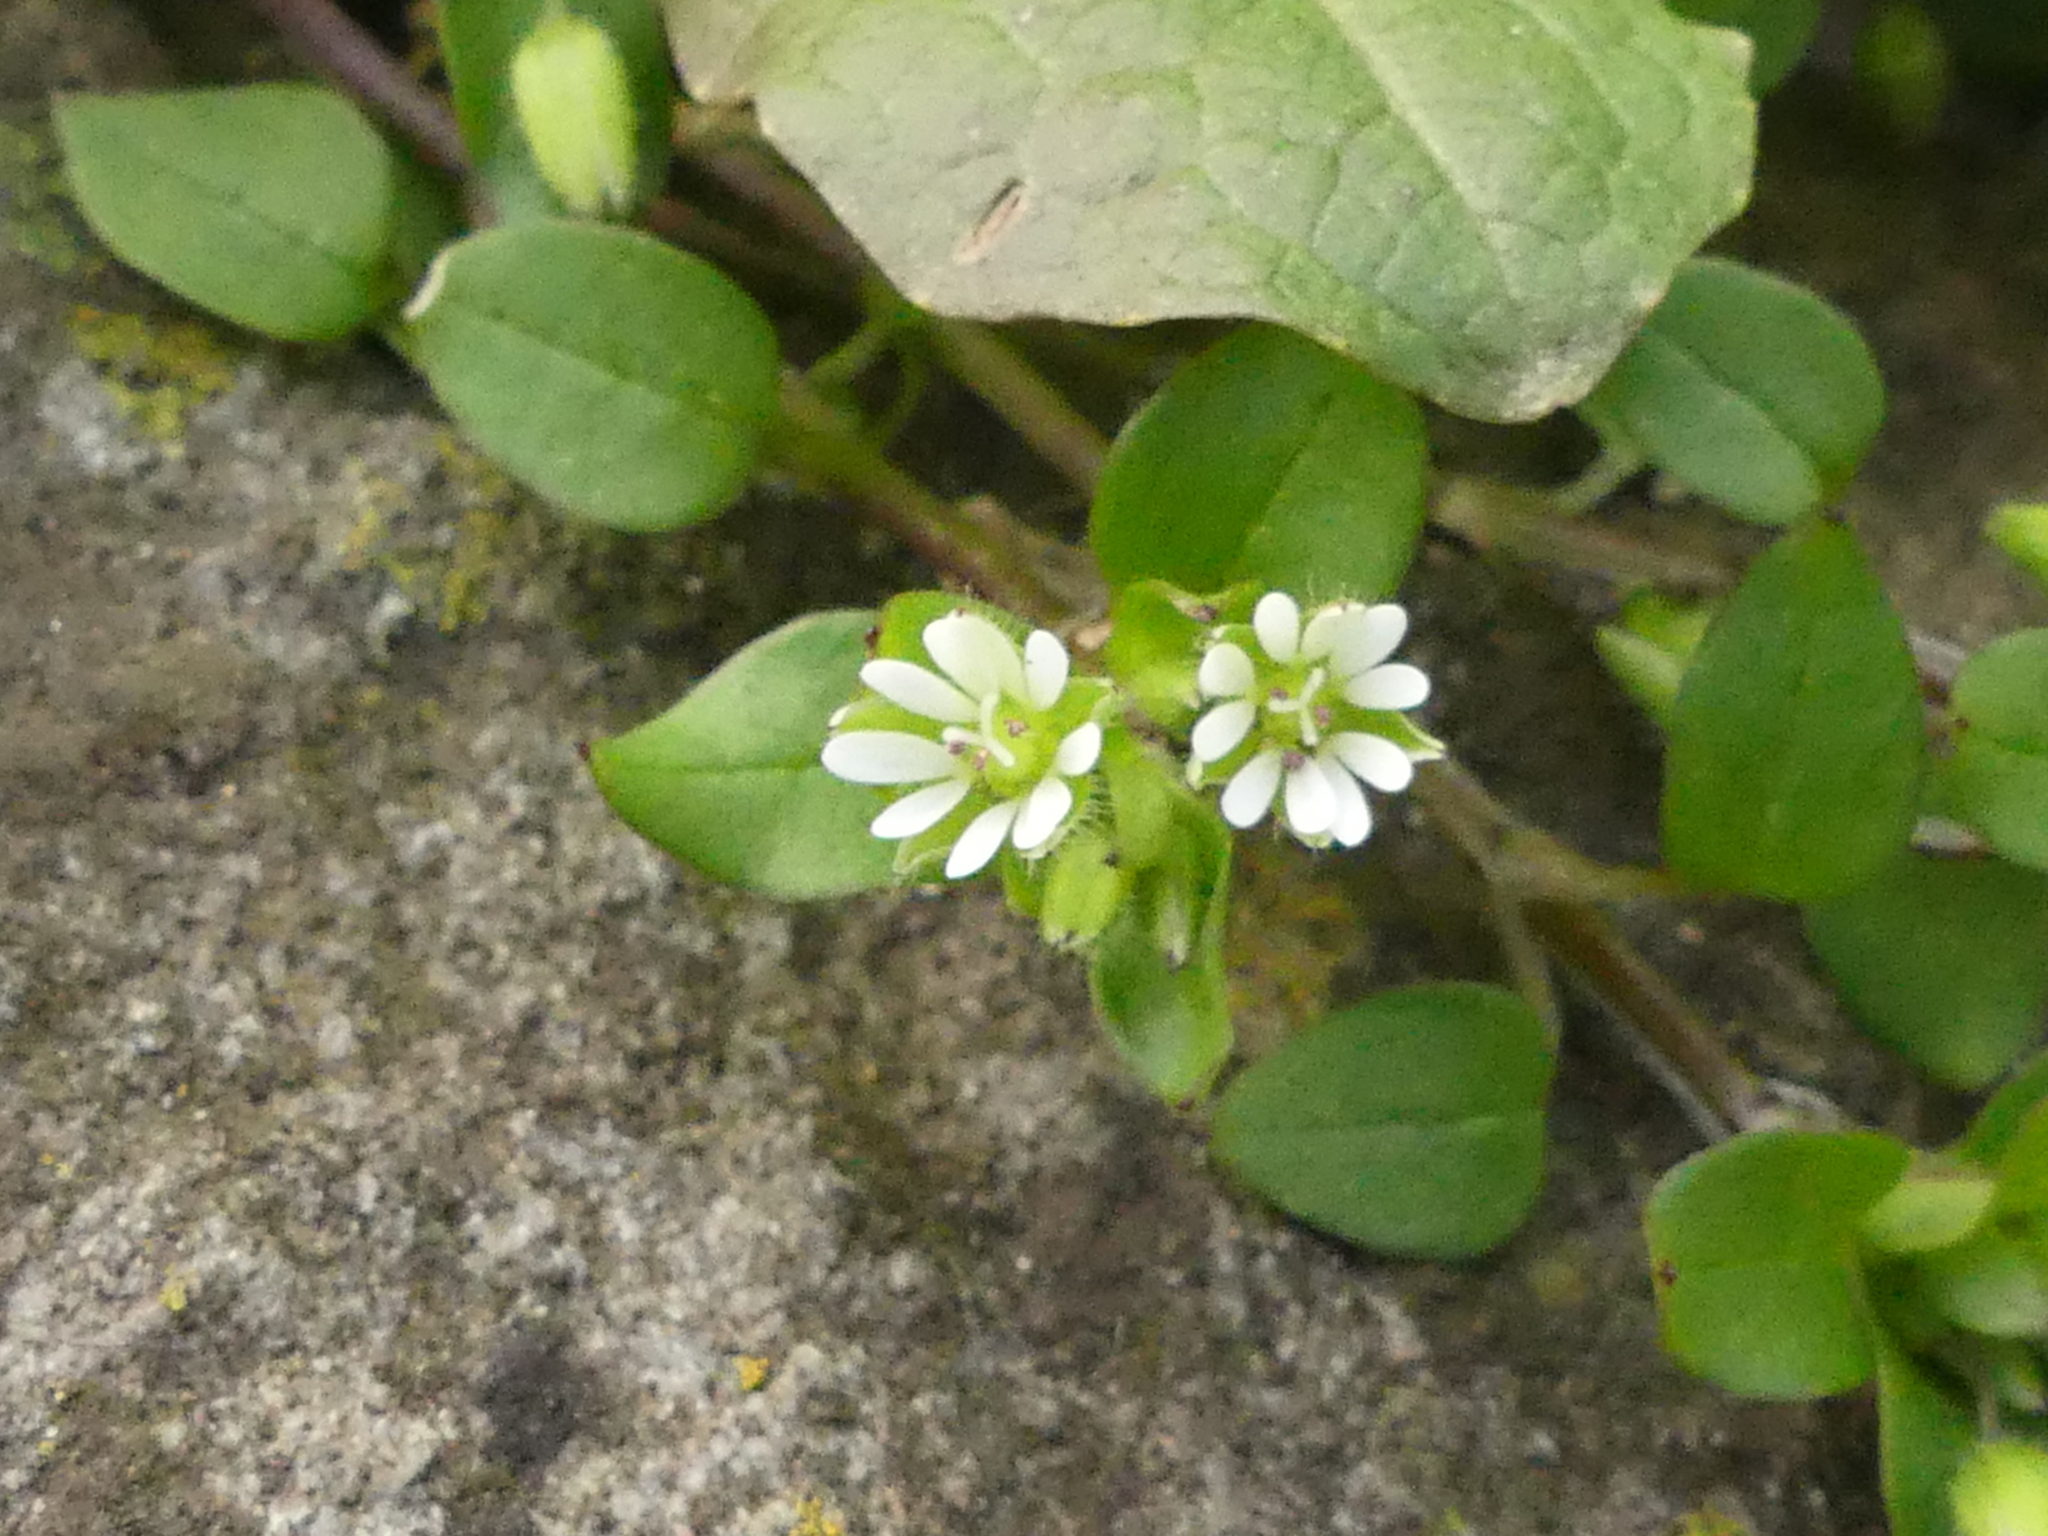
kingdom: Plantae
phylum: Tracheophyta
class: Magnoliopsida
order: Caryophyllales
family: Caryophyllaceae
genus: Stellaria
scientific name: Stellaria media
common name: Common chickweed
